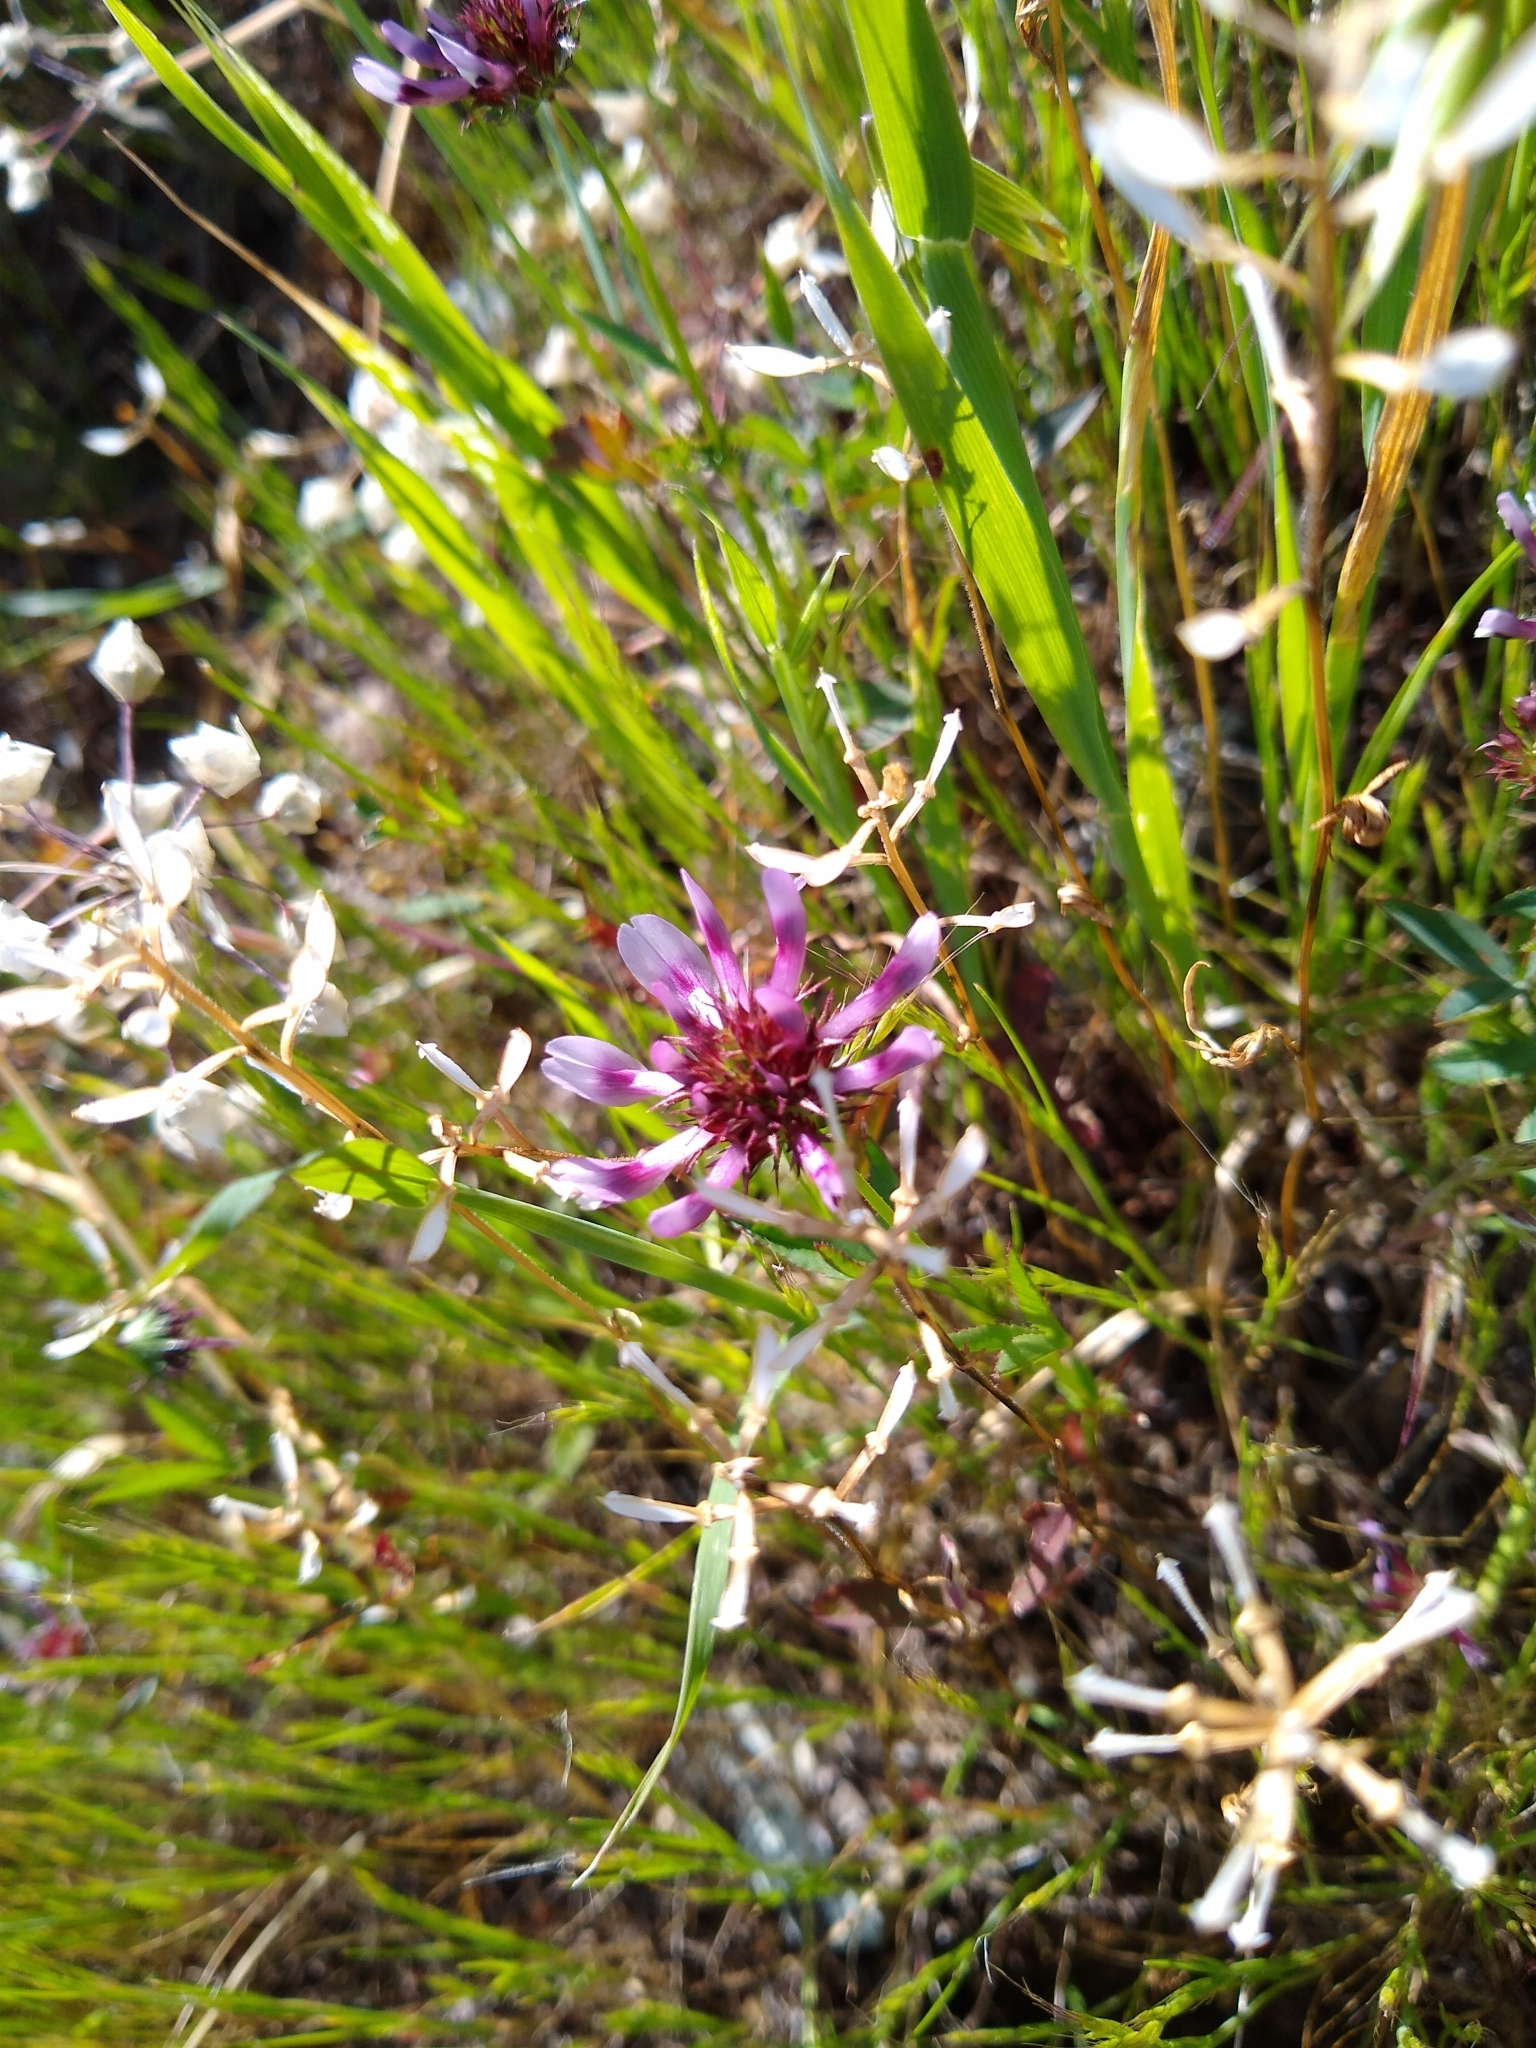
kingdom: Plantae
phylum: Tracheophyta
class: Magnoliopsida
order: Fabales
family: Fabaceae
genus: Trifolium
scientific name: Trifolium willdenovii
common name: Tomcat clover
